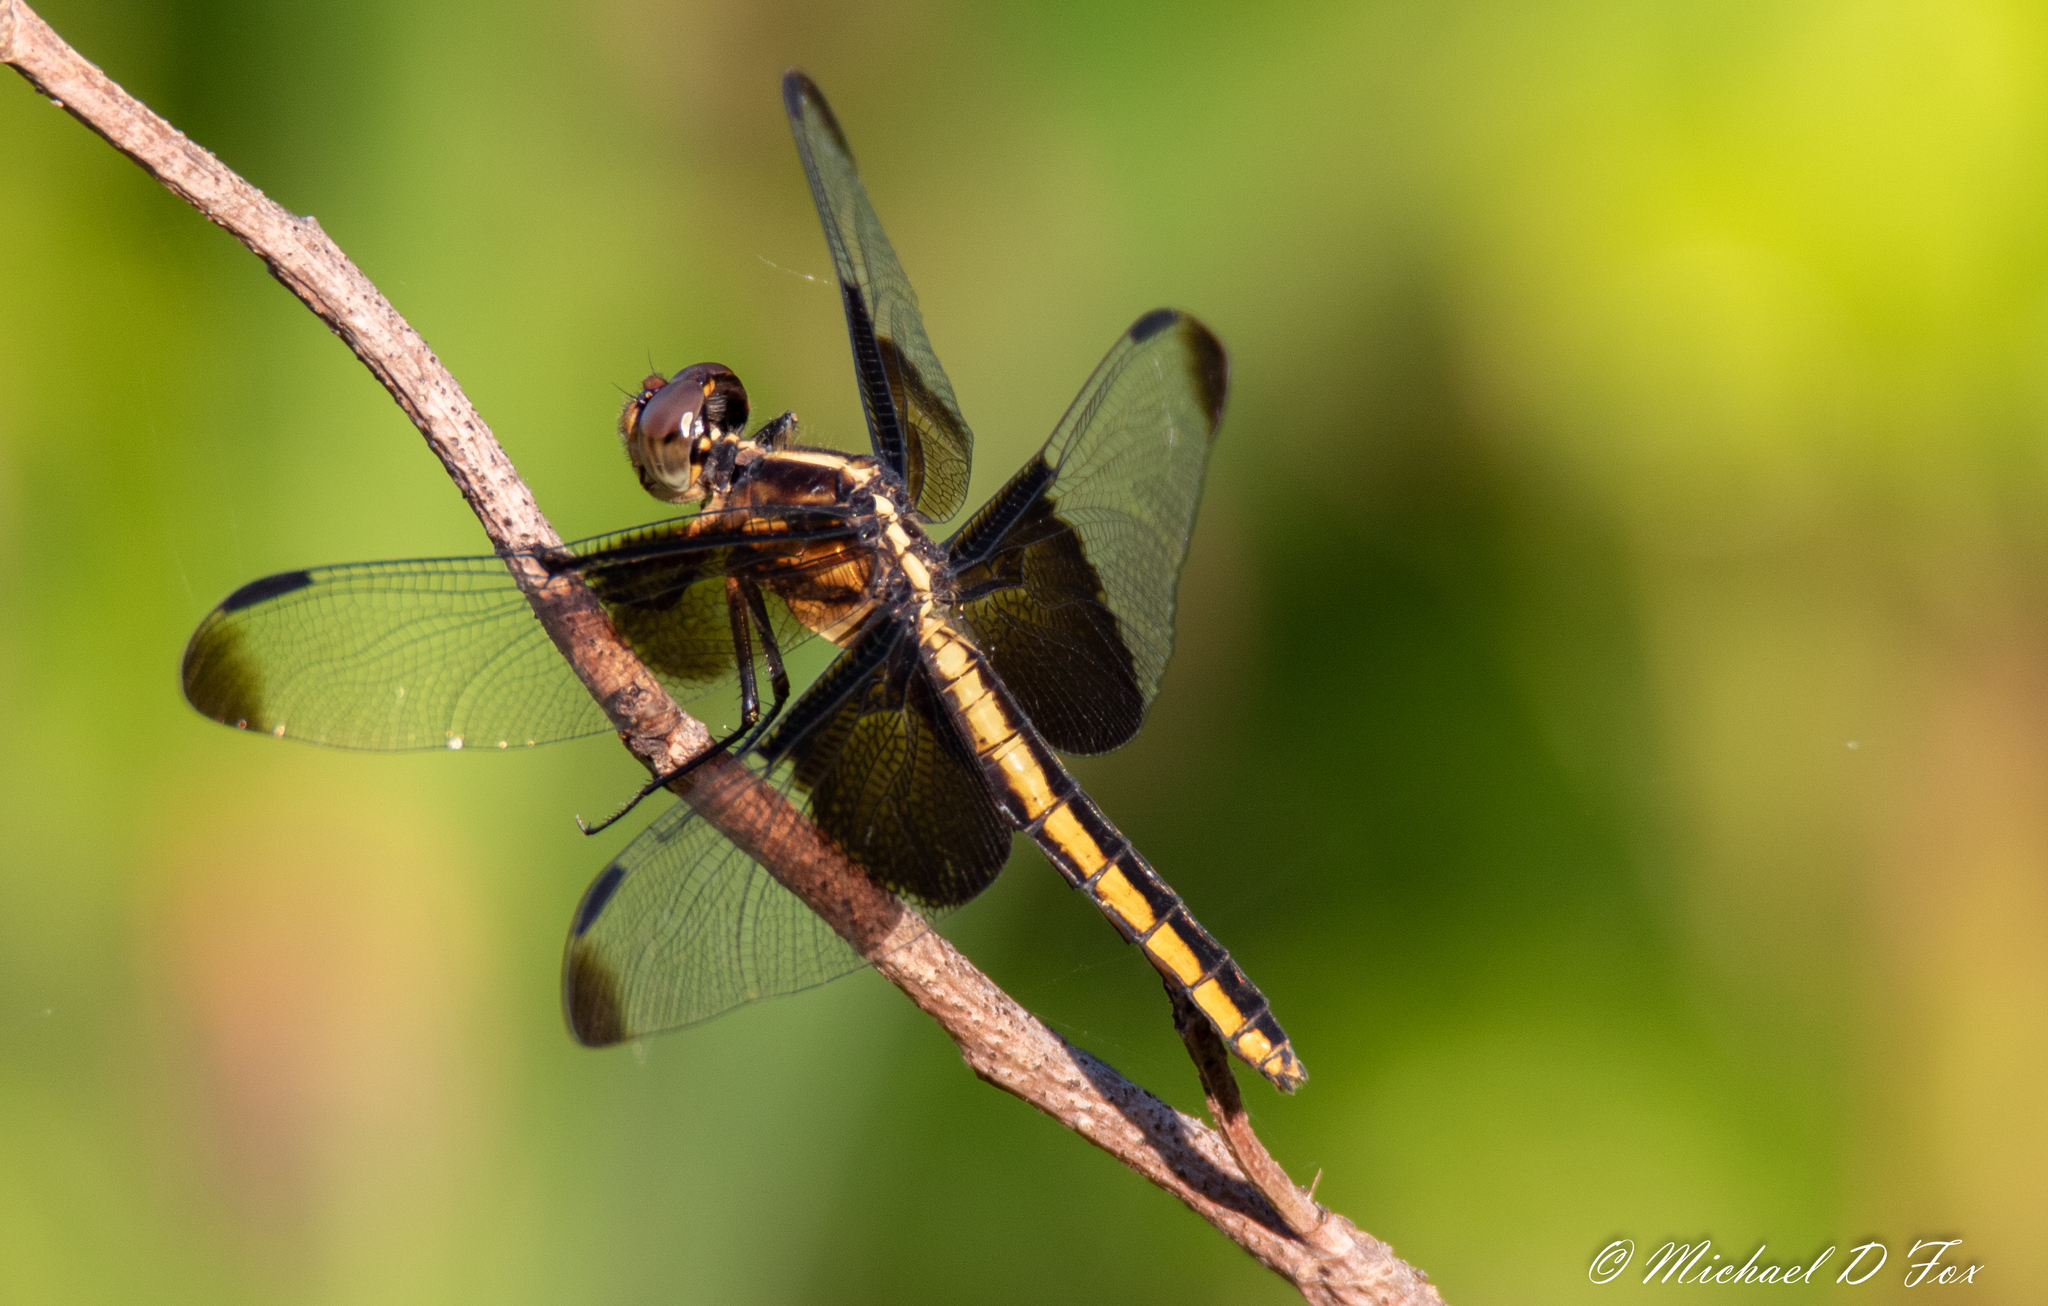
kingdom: Animalia
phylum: Arthropoda
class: Insecta
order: Odonata
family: Libellulidae
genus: Libellula
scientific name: Libellula luctuosa
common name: Widow skimmer
